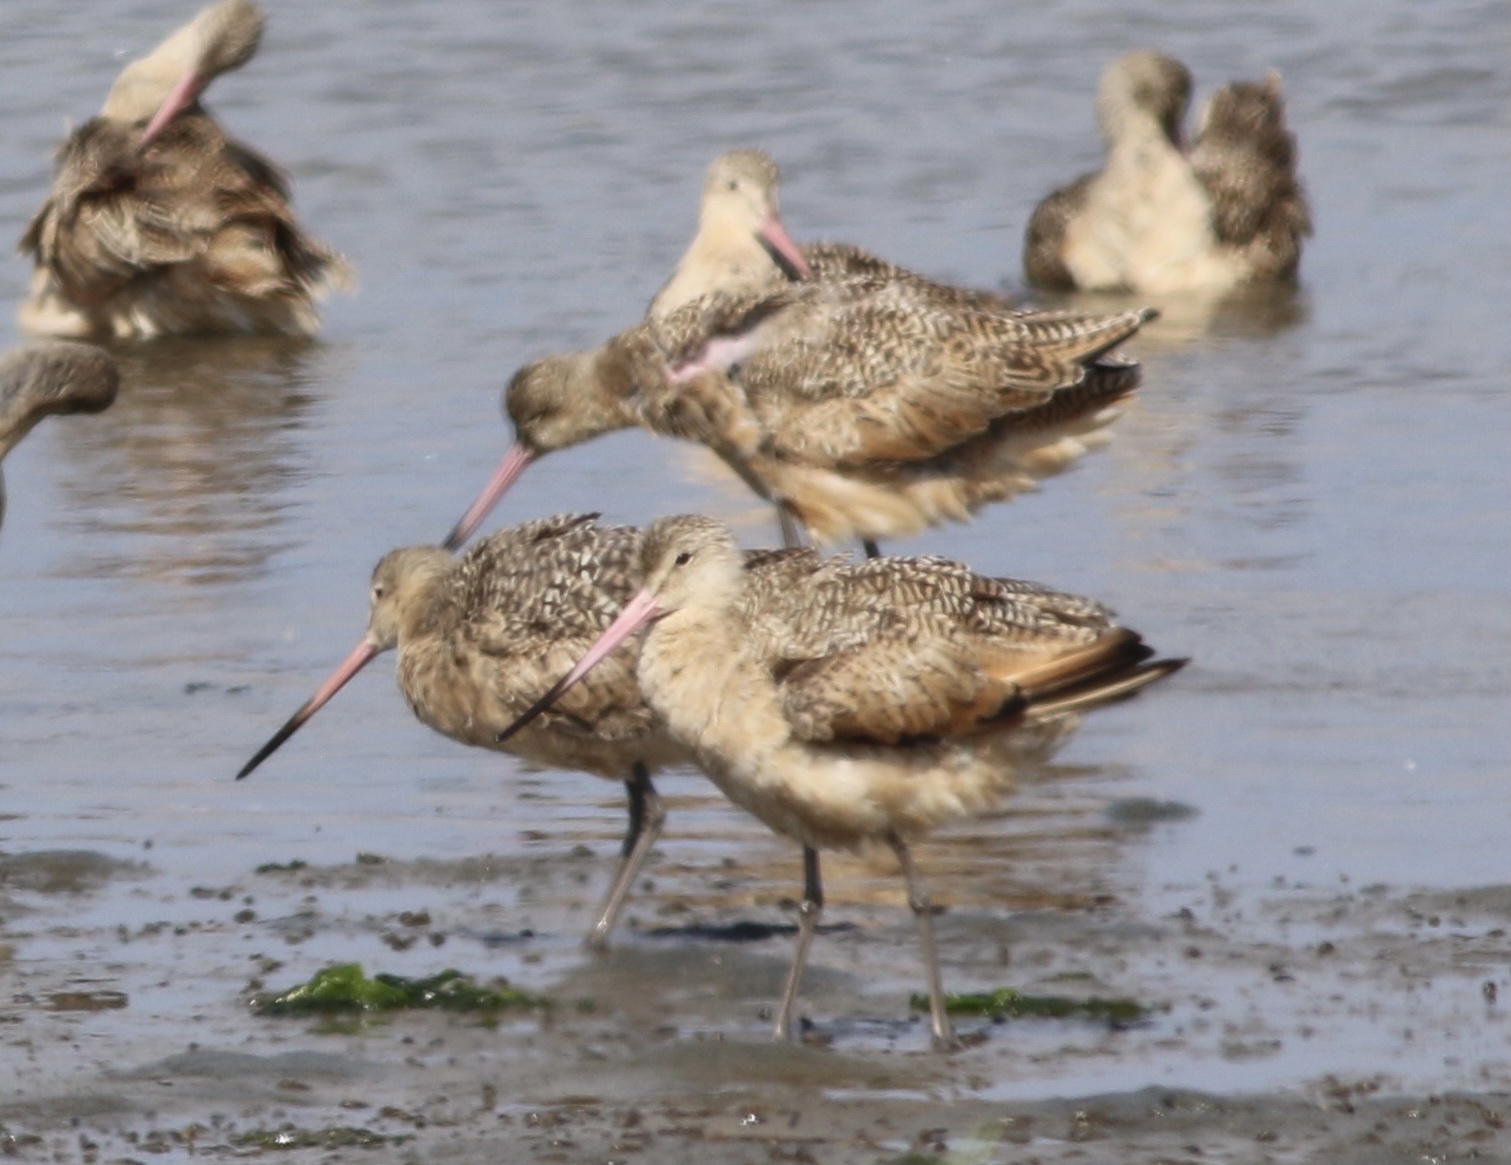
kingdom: Animalia
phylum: Chordata
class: Aves
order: Charadriiformes
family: Scolopacidae
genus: Limosa
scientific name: Limosa fedoa
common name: Marbled godwit
